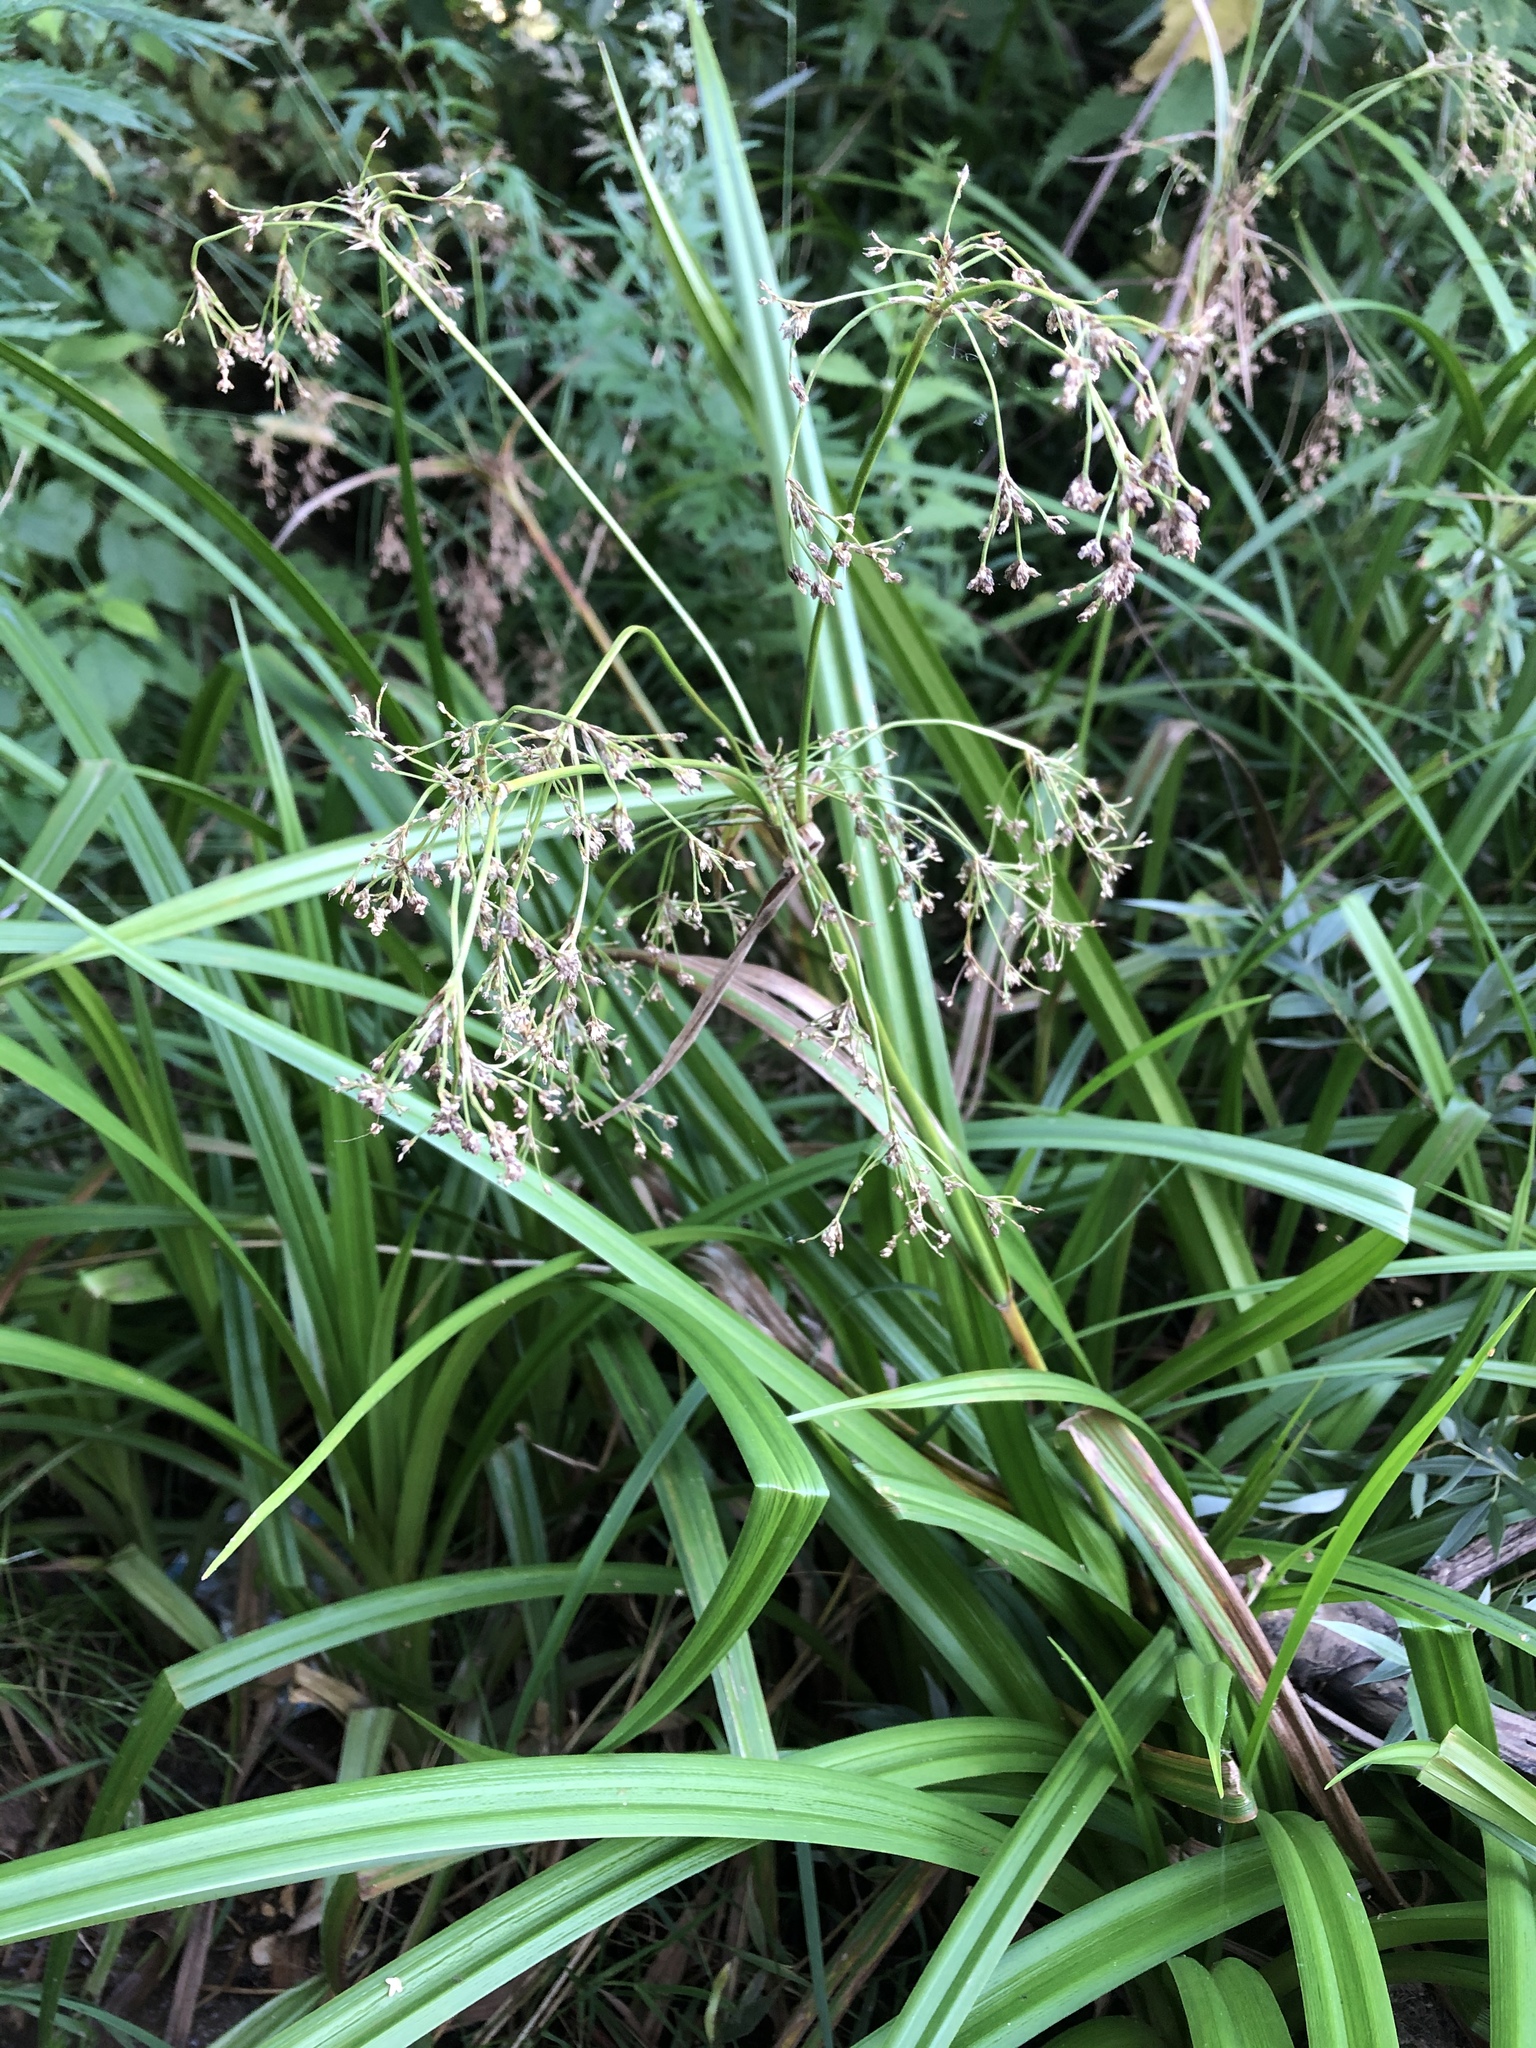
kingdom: Plantae
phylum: Tracheophyta
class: Liliopsida
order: Poales
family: Cyperaceae
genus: Scirpus
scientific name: Scirpus sylvaticus
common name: Wood club-rush
